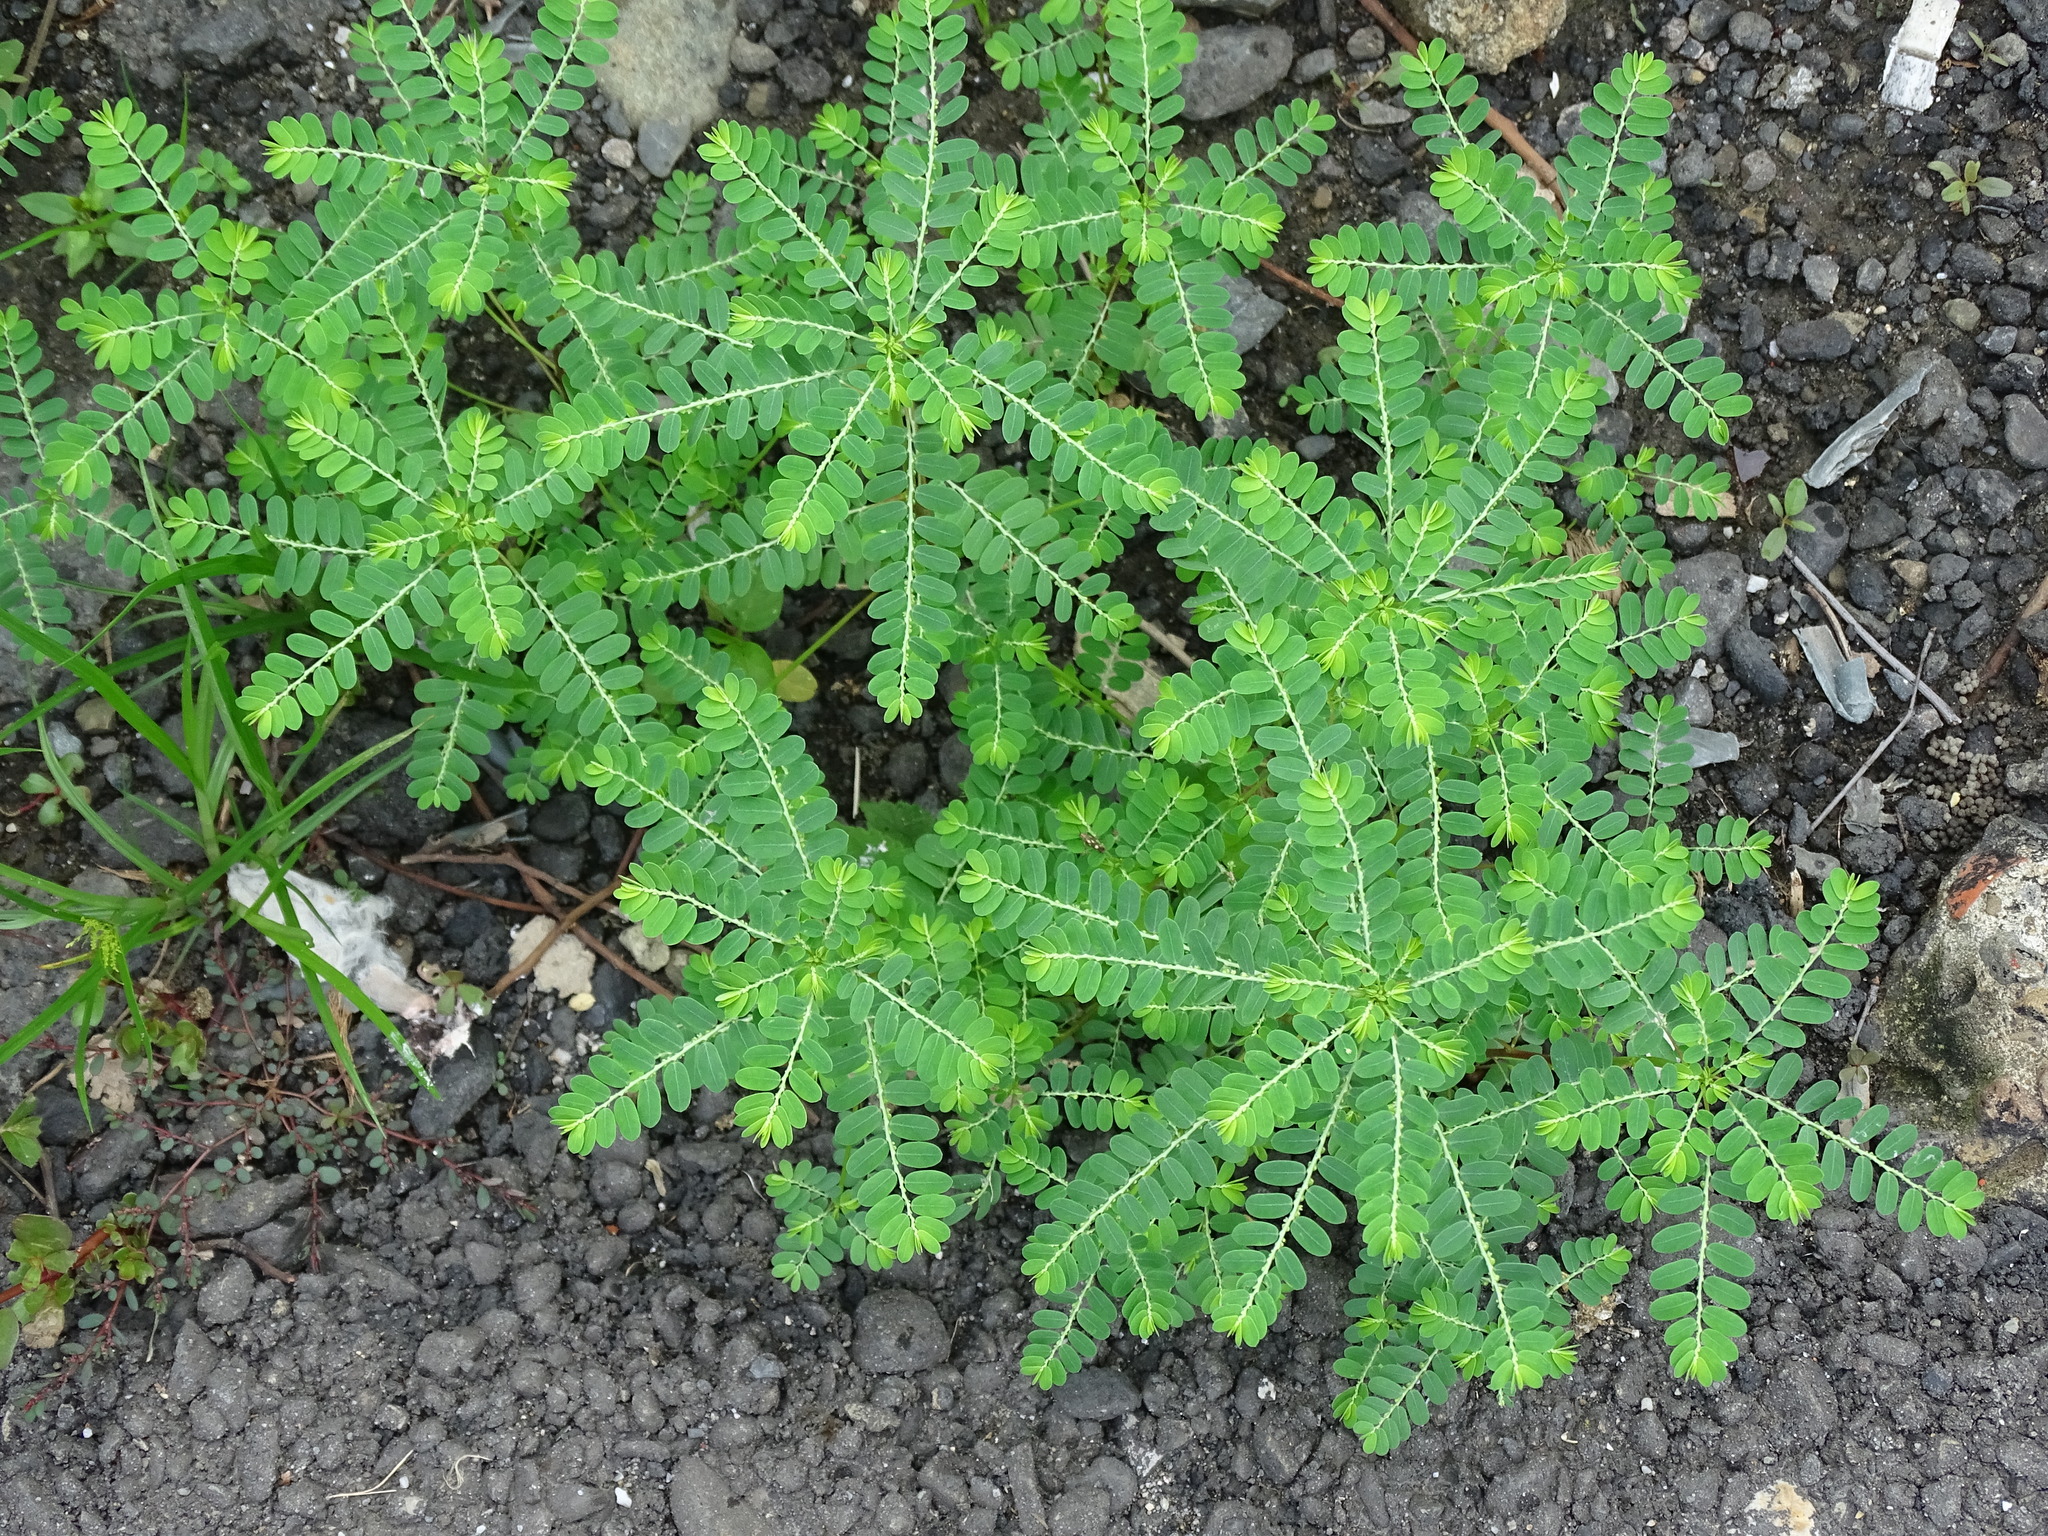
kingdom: Plantae
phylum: Tracheophyta
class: Magnoliopsida
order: Malpighiales
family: Phyllanthaceae
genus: Phyllanthus
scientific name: Phyllanthus amarus
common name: Carry me seed
